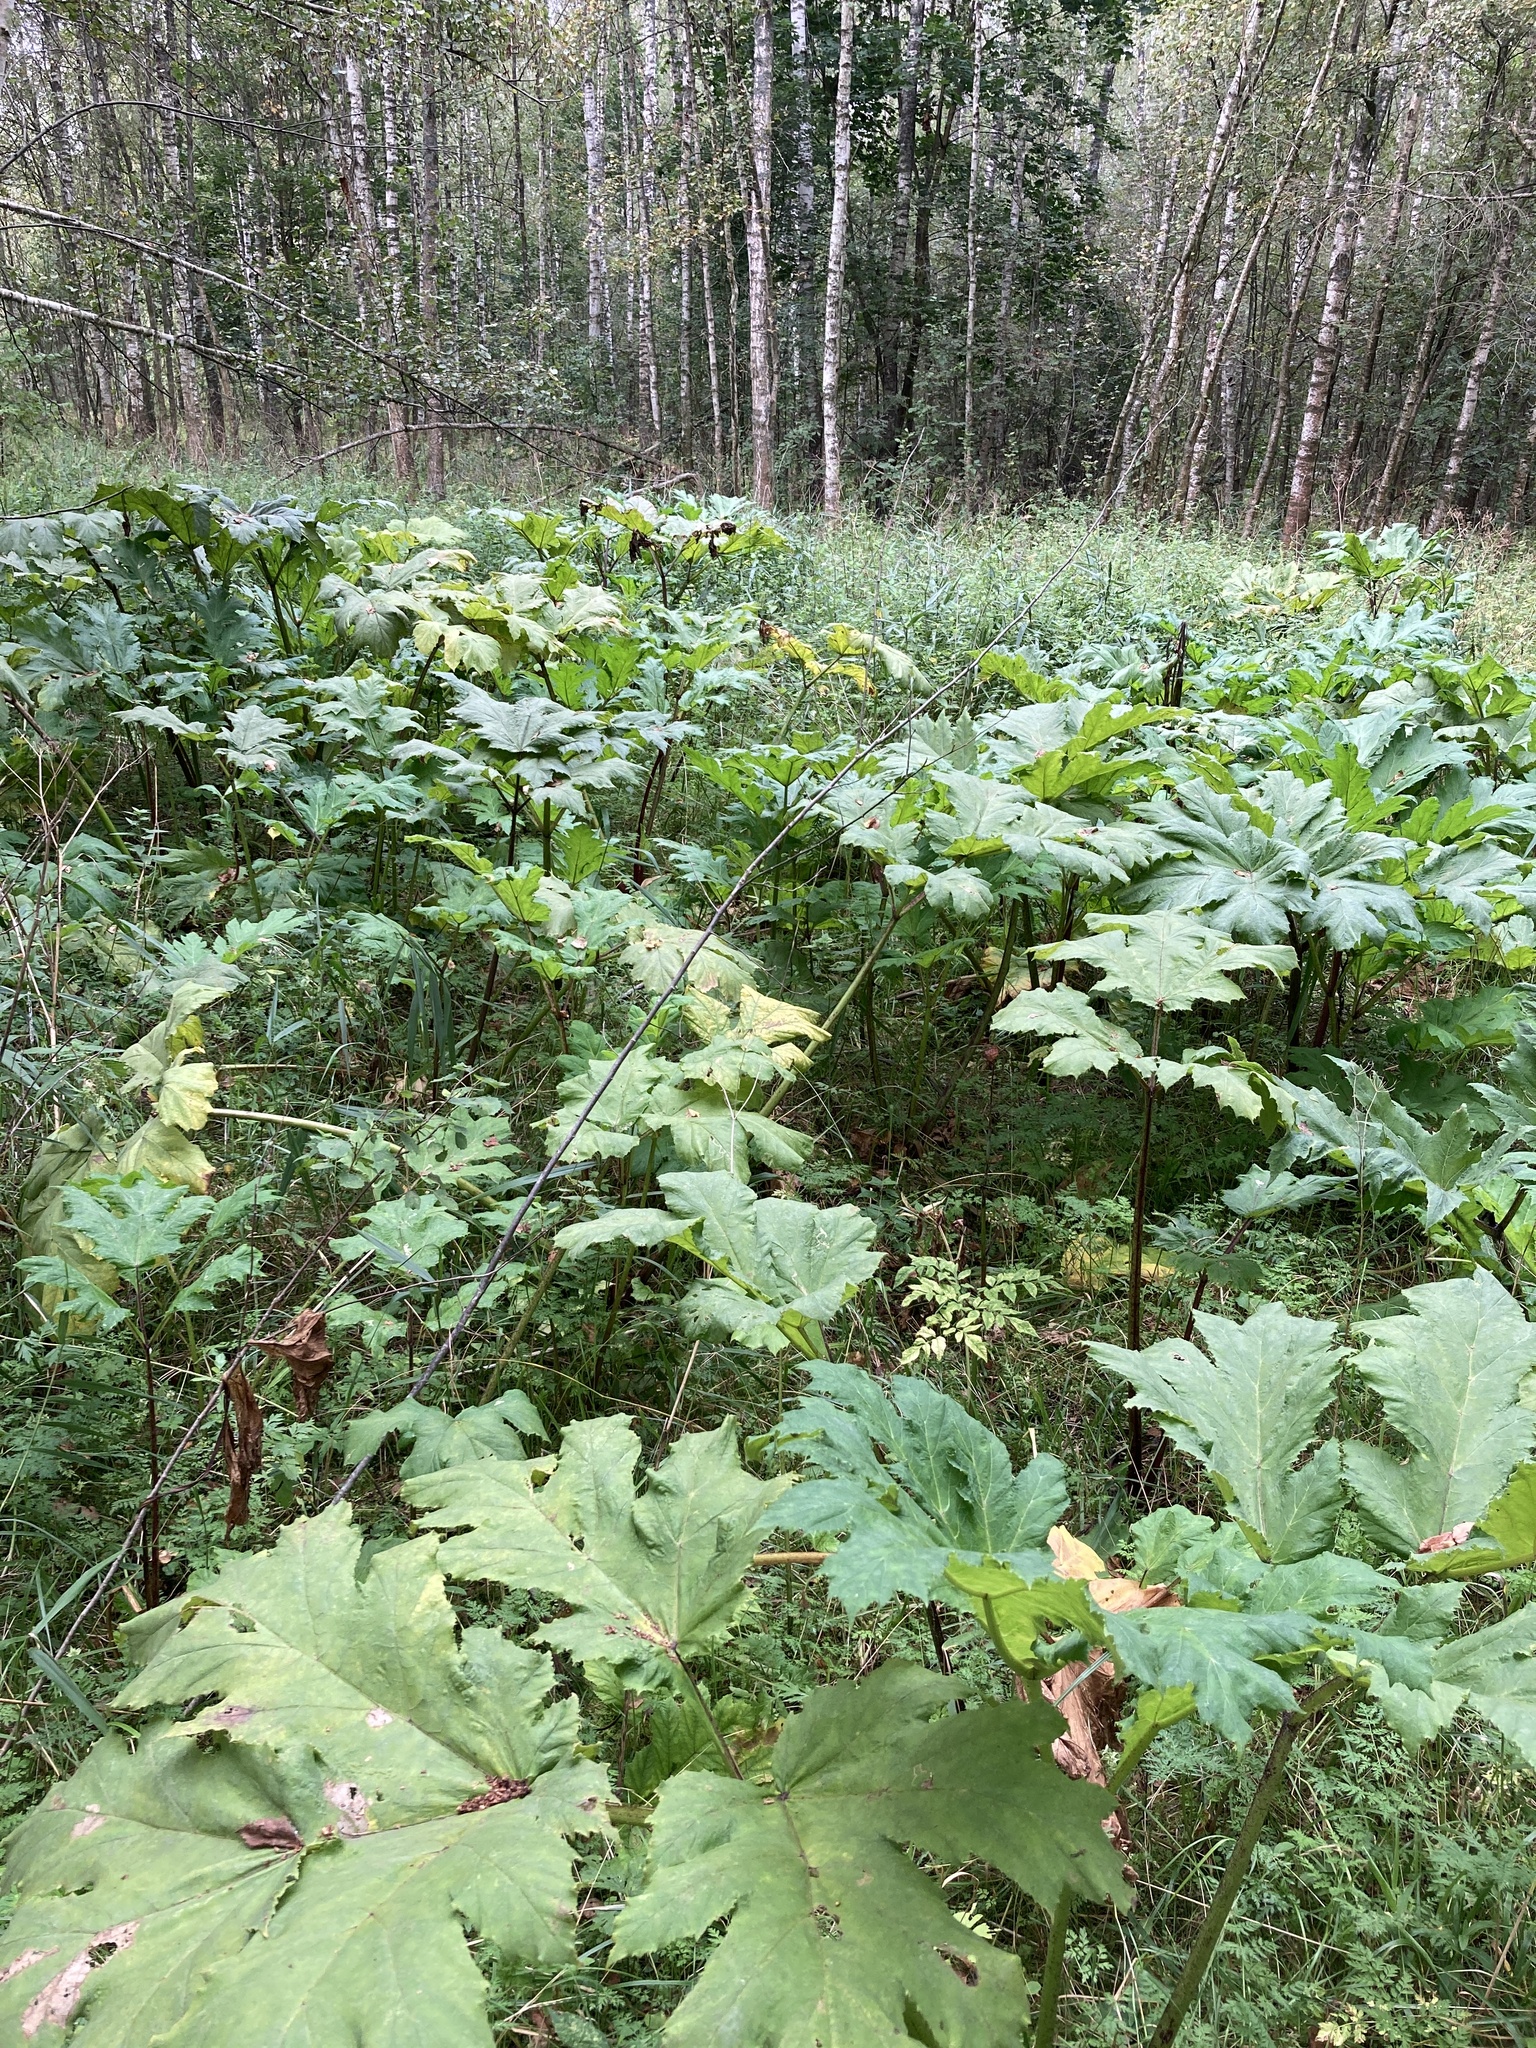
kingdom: Plantae
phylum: Tracheophyta
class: Magnoliopsida
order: Apiales
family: Apiaceae
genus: Heracleum
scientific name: Heracleum sosnowskyi
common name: Sosnowsky's hogweed
